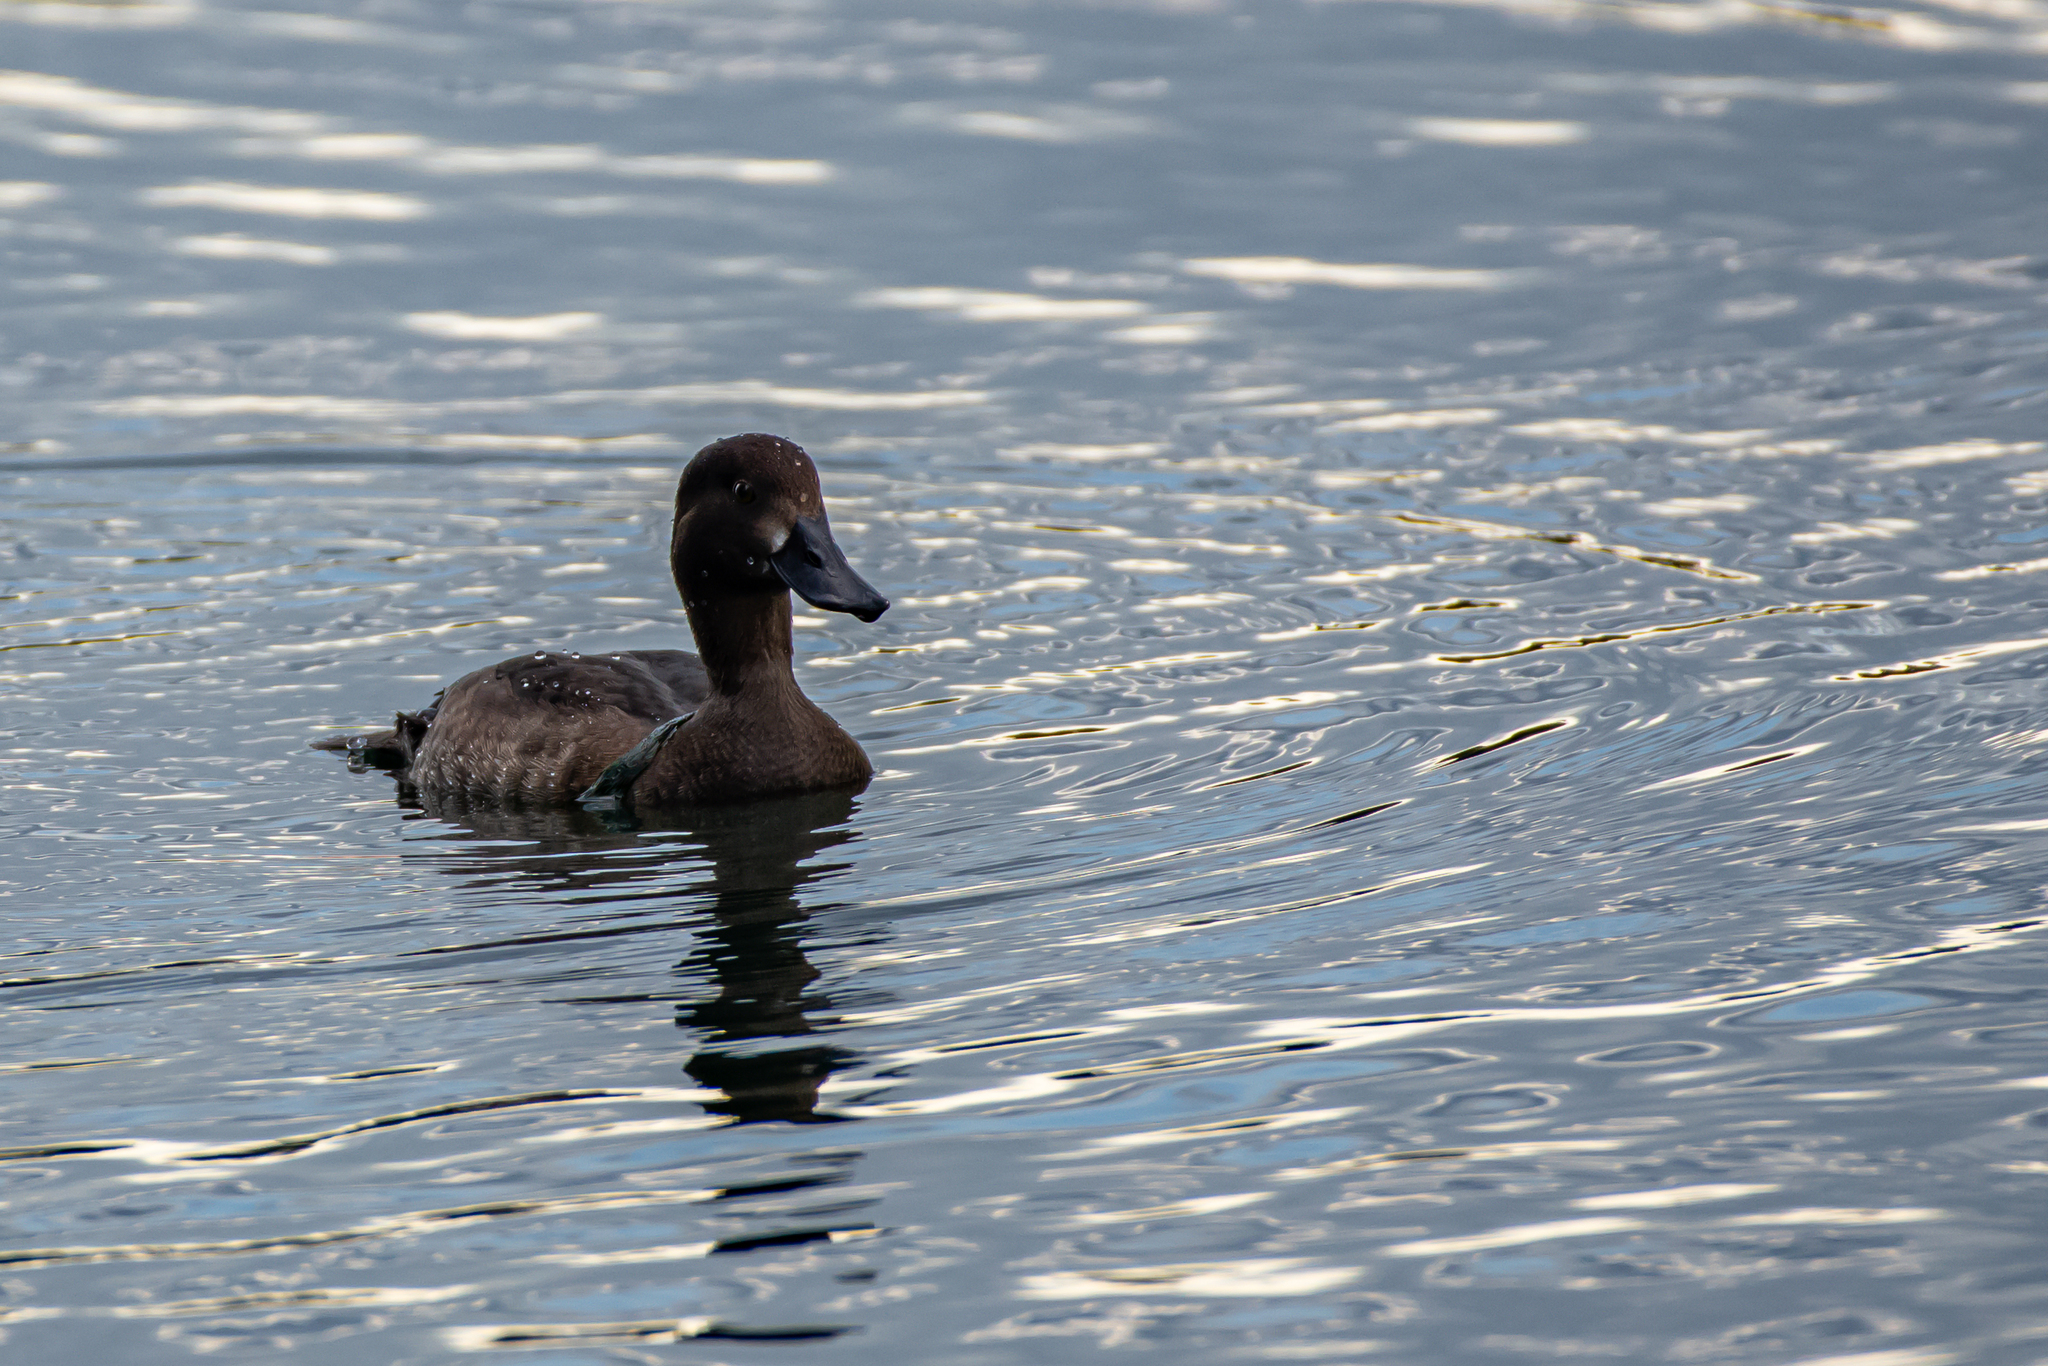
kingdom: Animalia
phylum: Chordata
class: Aves
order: Anseriformes
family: Anatidae
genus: Aythya
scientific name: Aythya fuligula
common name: Tufted duck
